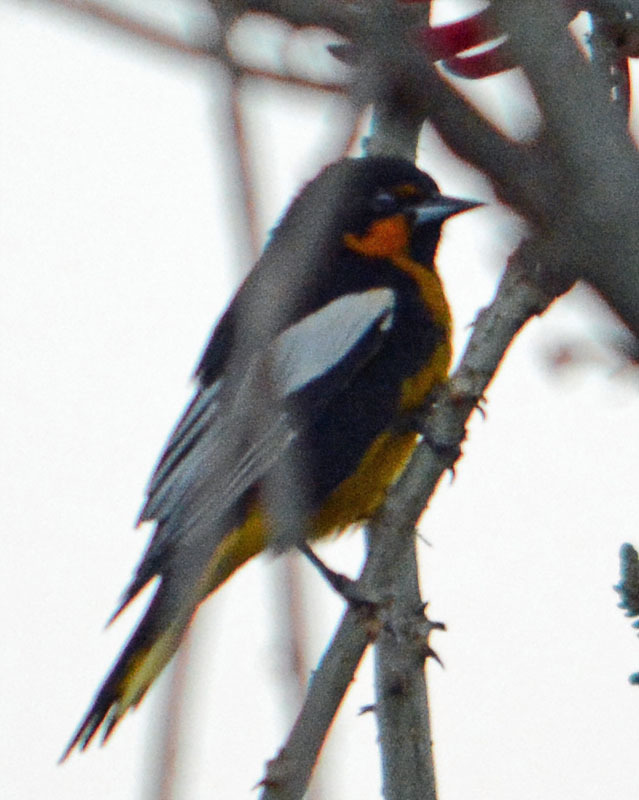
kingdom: Animalia
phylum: Chordata
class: Aves
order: Passeriformes
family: Icteridae
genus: Icterus
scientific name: Icterus abeillei
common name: Black-backed oriole
